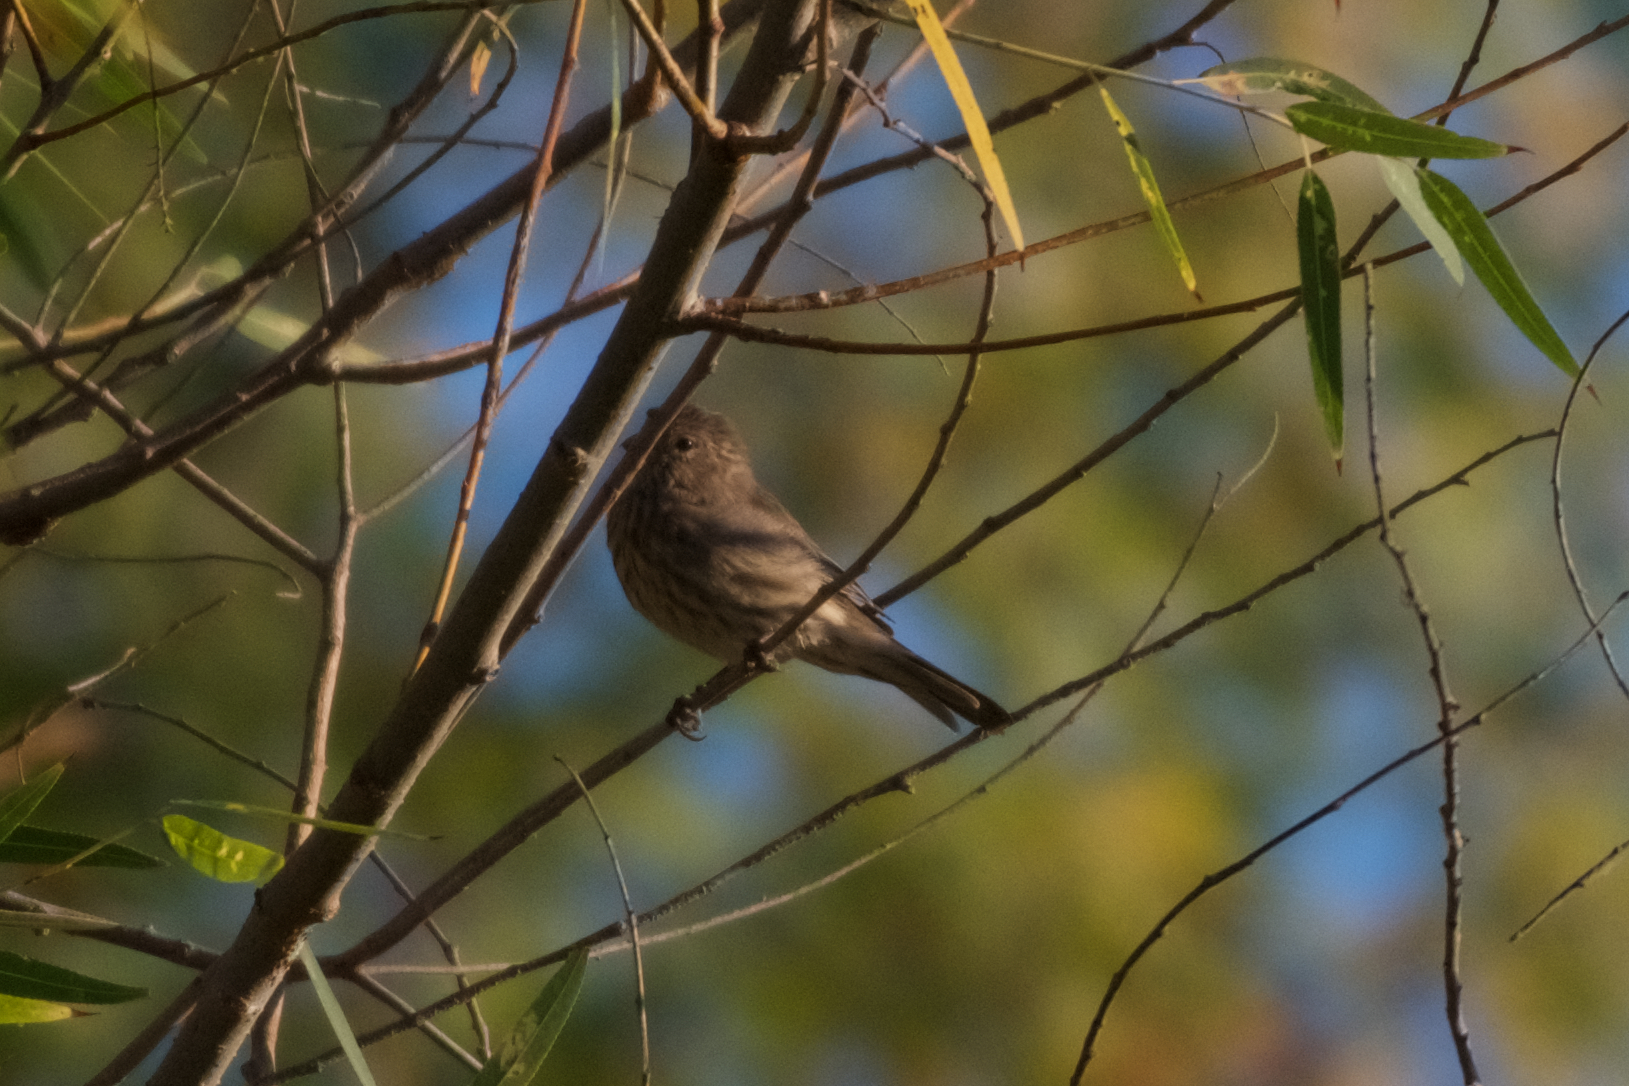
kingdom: Animalia
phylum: Chordata
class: Aves
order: Passeriformes
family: Fringillidae
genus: Haemorhous
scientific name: Haemorhous mexicanus
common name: House finch
